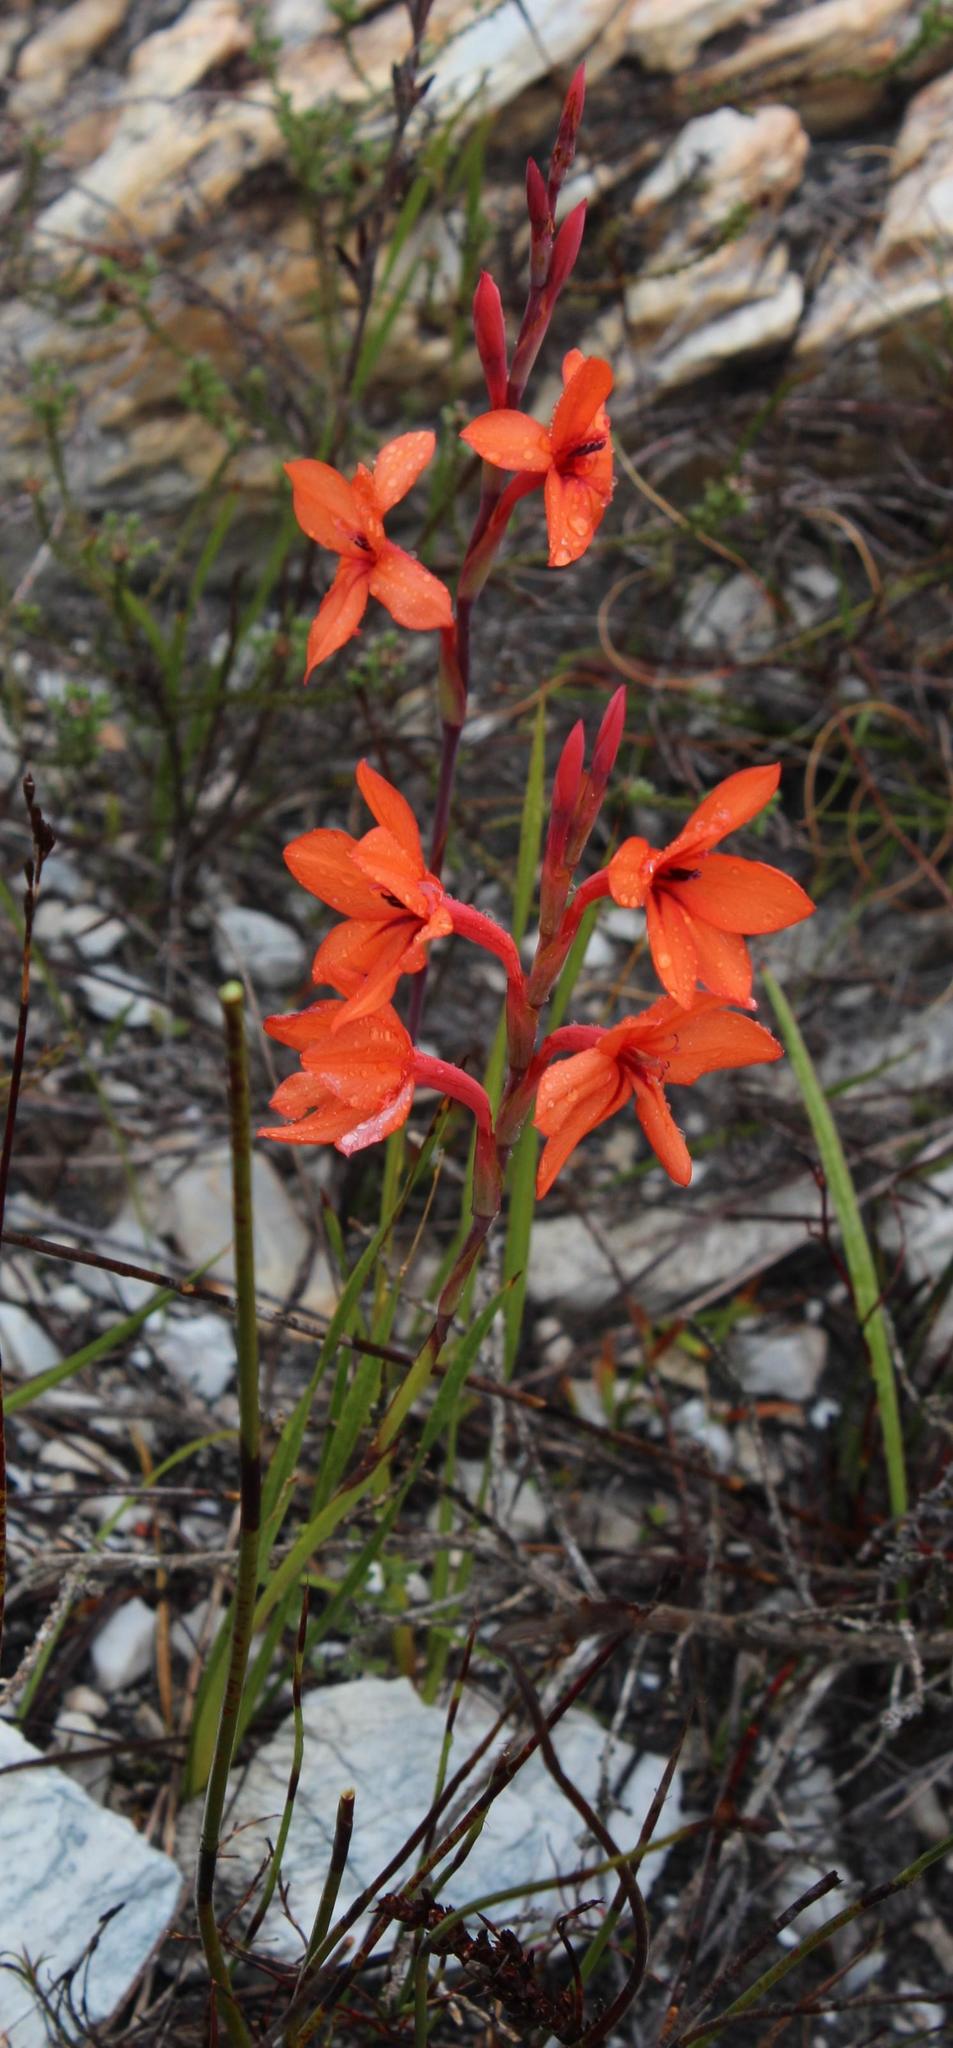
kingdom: Plantae
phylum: Tracheophyta
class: Liliopsida
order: Asparagales
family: Iridaceae
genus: Watsonia
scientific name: Watsonia stenosiphon
